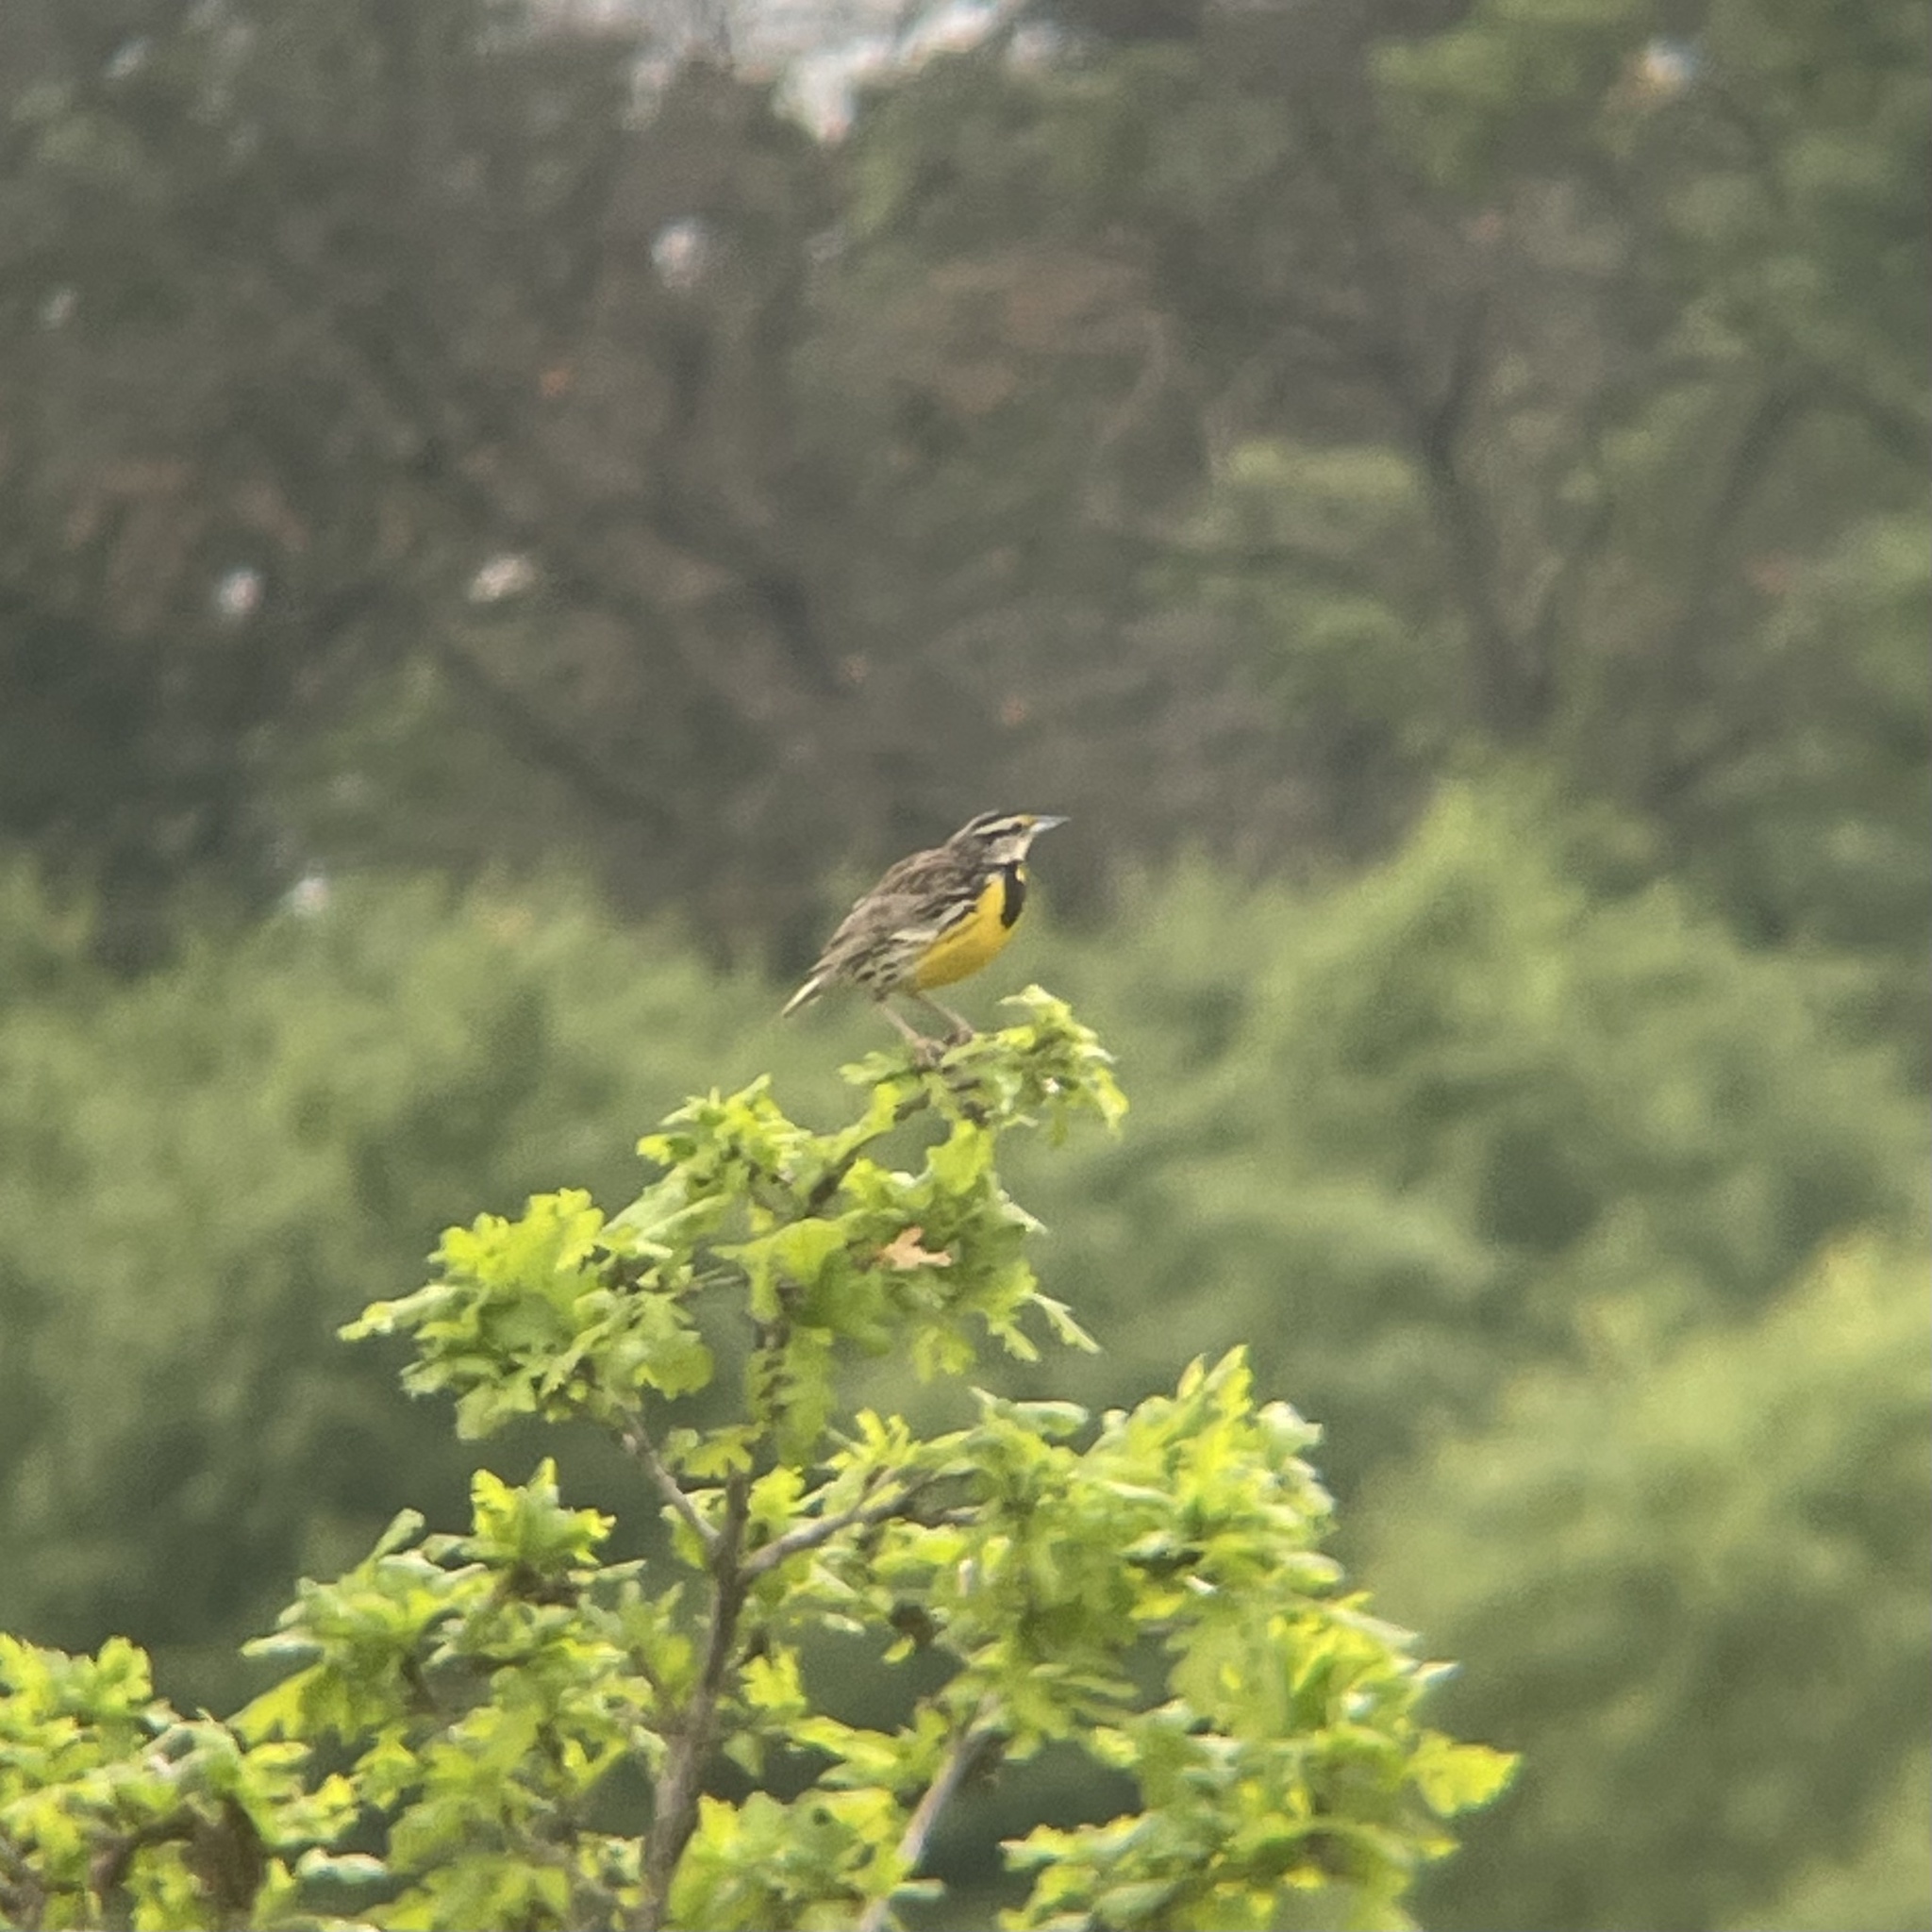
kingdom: Animalia
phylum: Chordata
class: Aves
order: Passeriformes
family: Icteridae
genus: Sturnella
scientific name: Sturnella magna
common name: Eastern meadowlark
